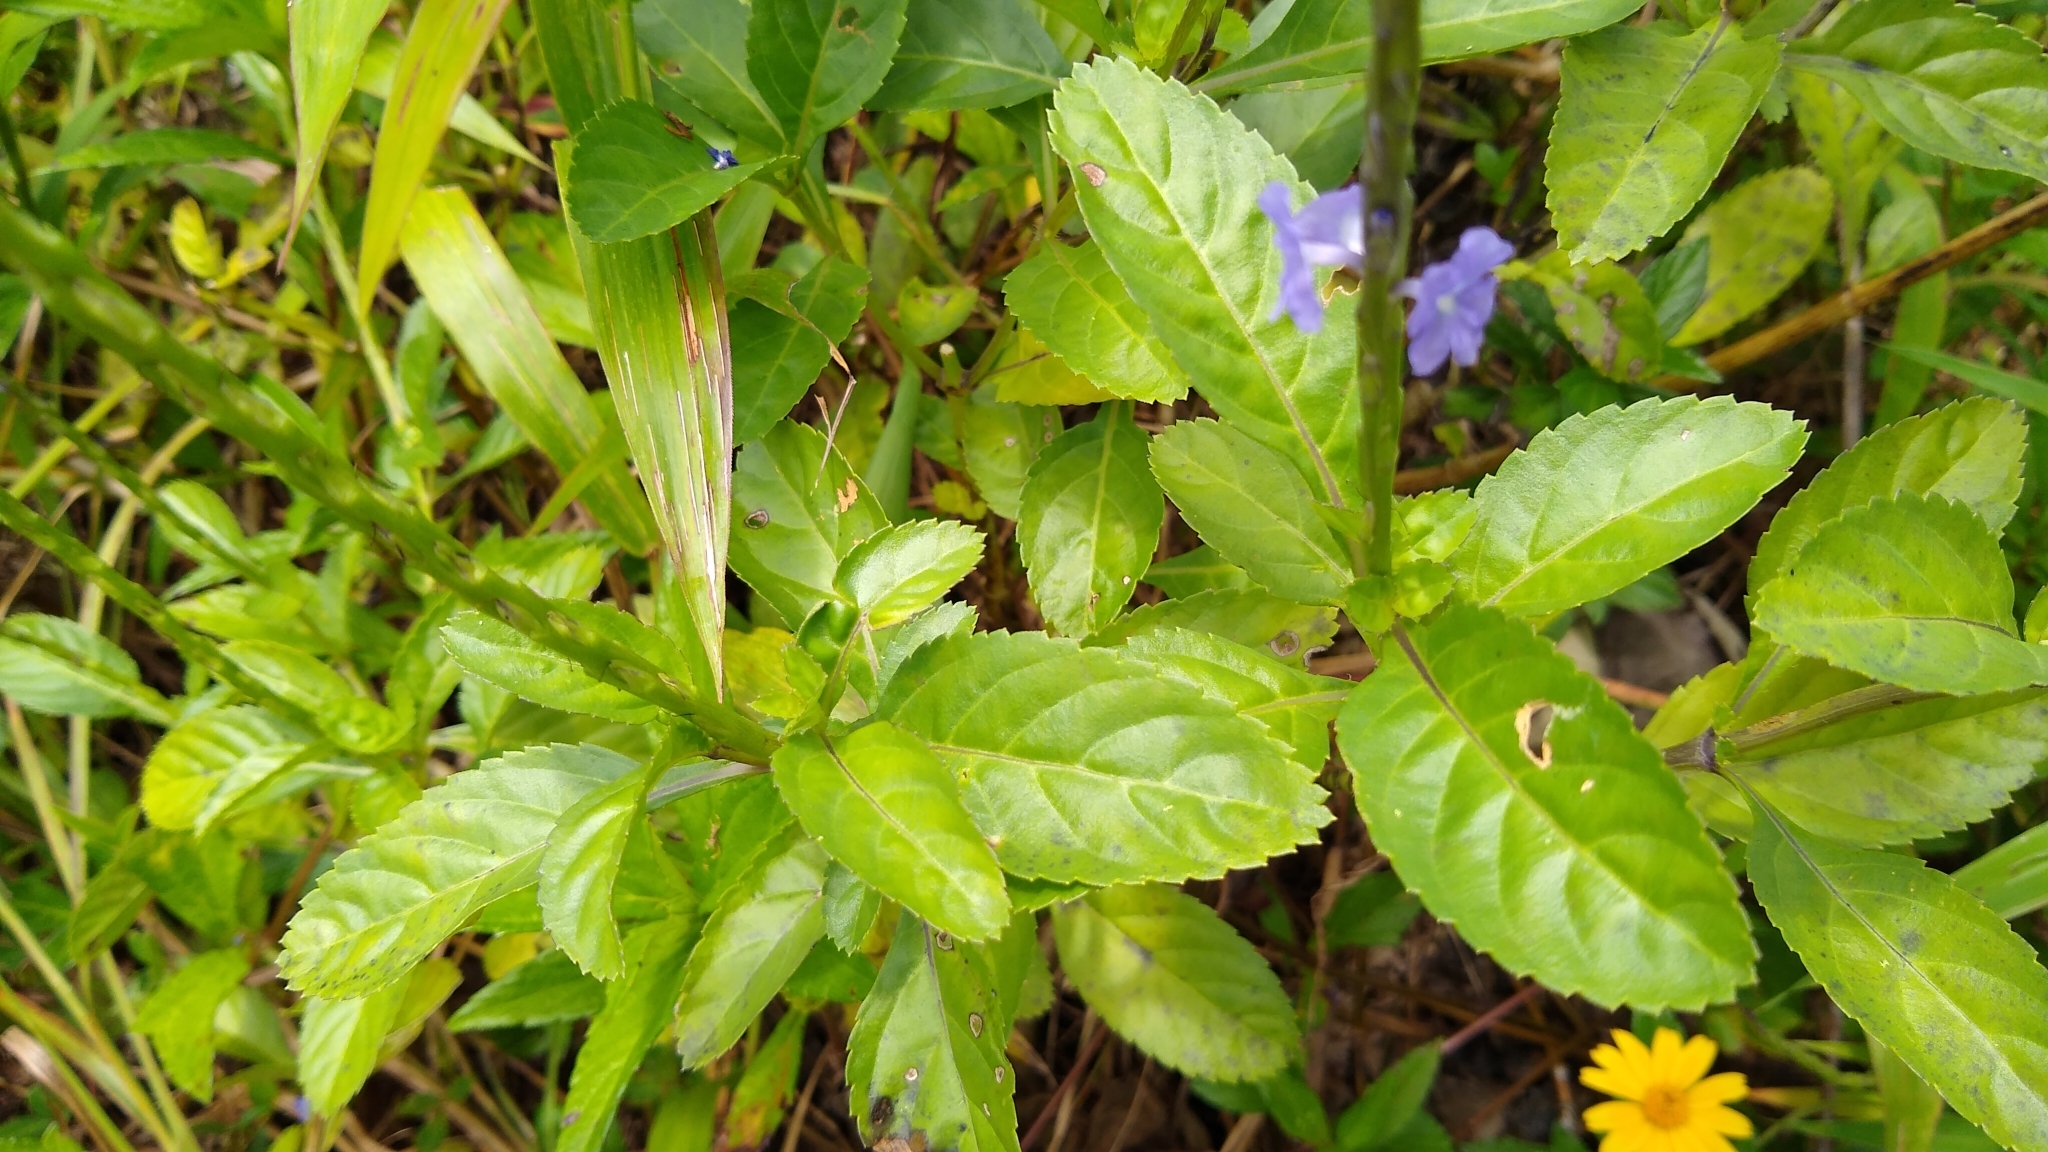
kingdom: Plantae
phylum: Tracheophyta
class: Magnoliopsida
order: Lamiales
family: Verbenaceae
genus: Stachytarpheta
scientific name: Stachytarpheta jamaicensis
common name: Light-blue snakeweed
